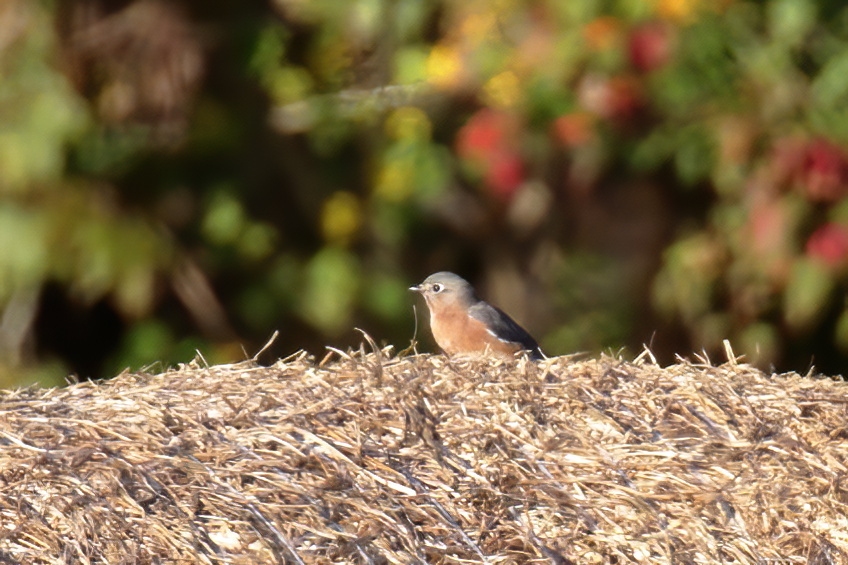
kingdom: Animalia
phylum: Chordata
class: Aves
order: Passeriformes
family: Turdidae
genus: Sialia
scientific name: Sialia sialis
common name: Eastern bluebird
